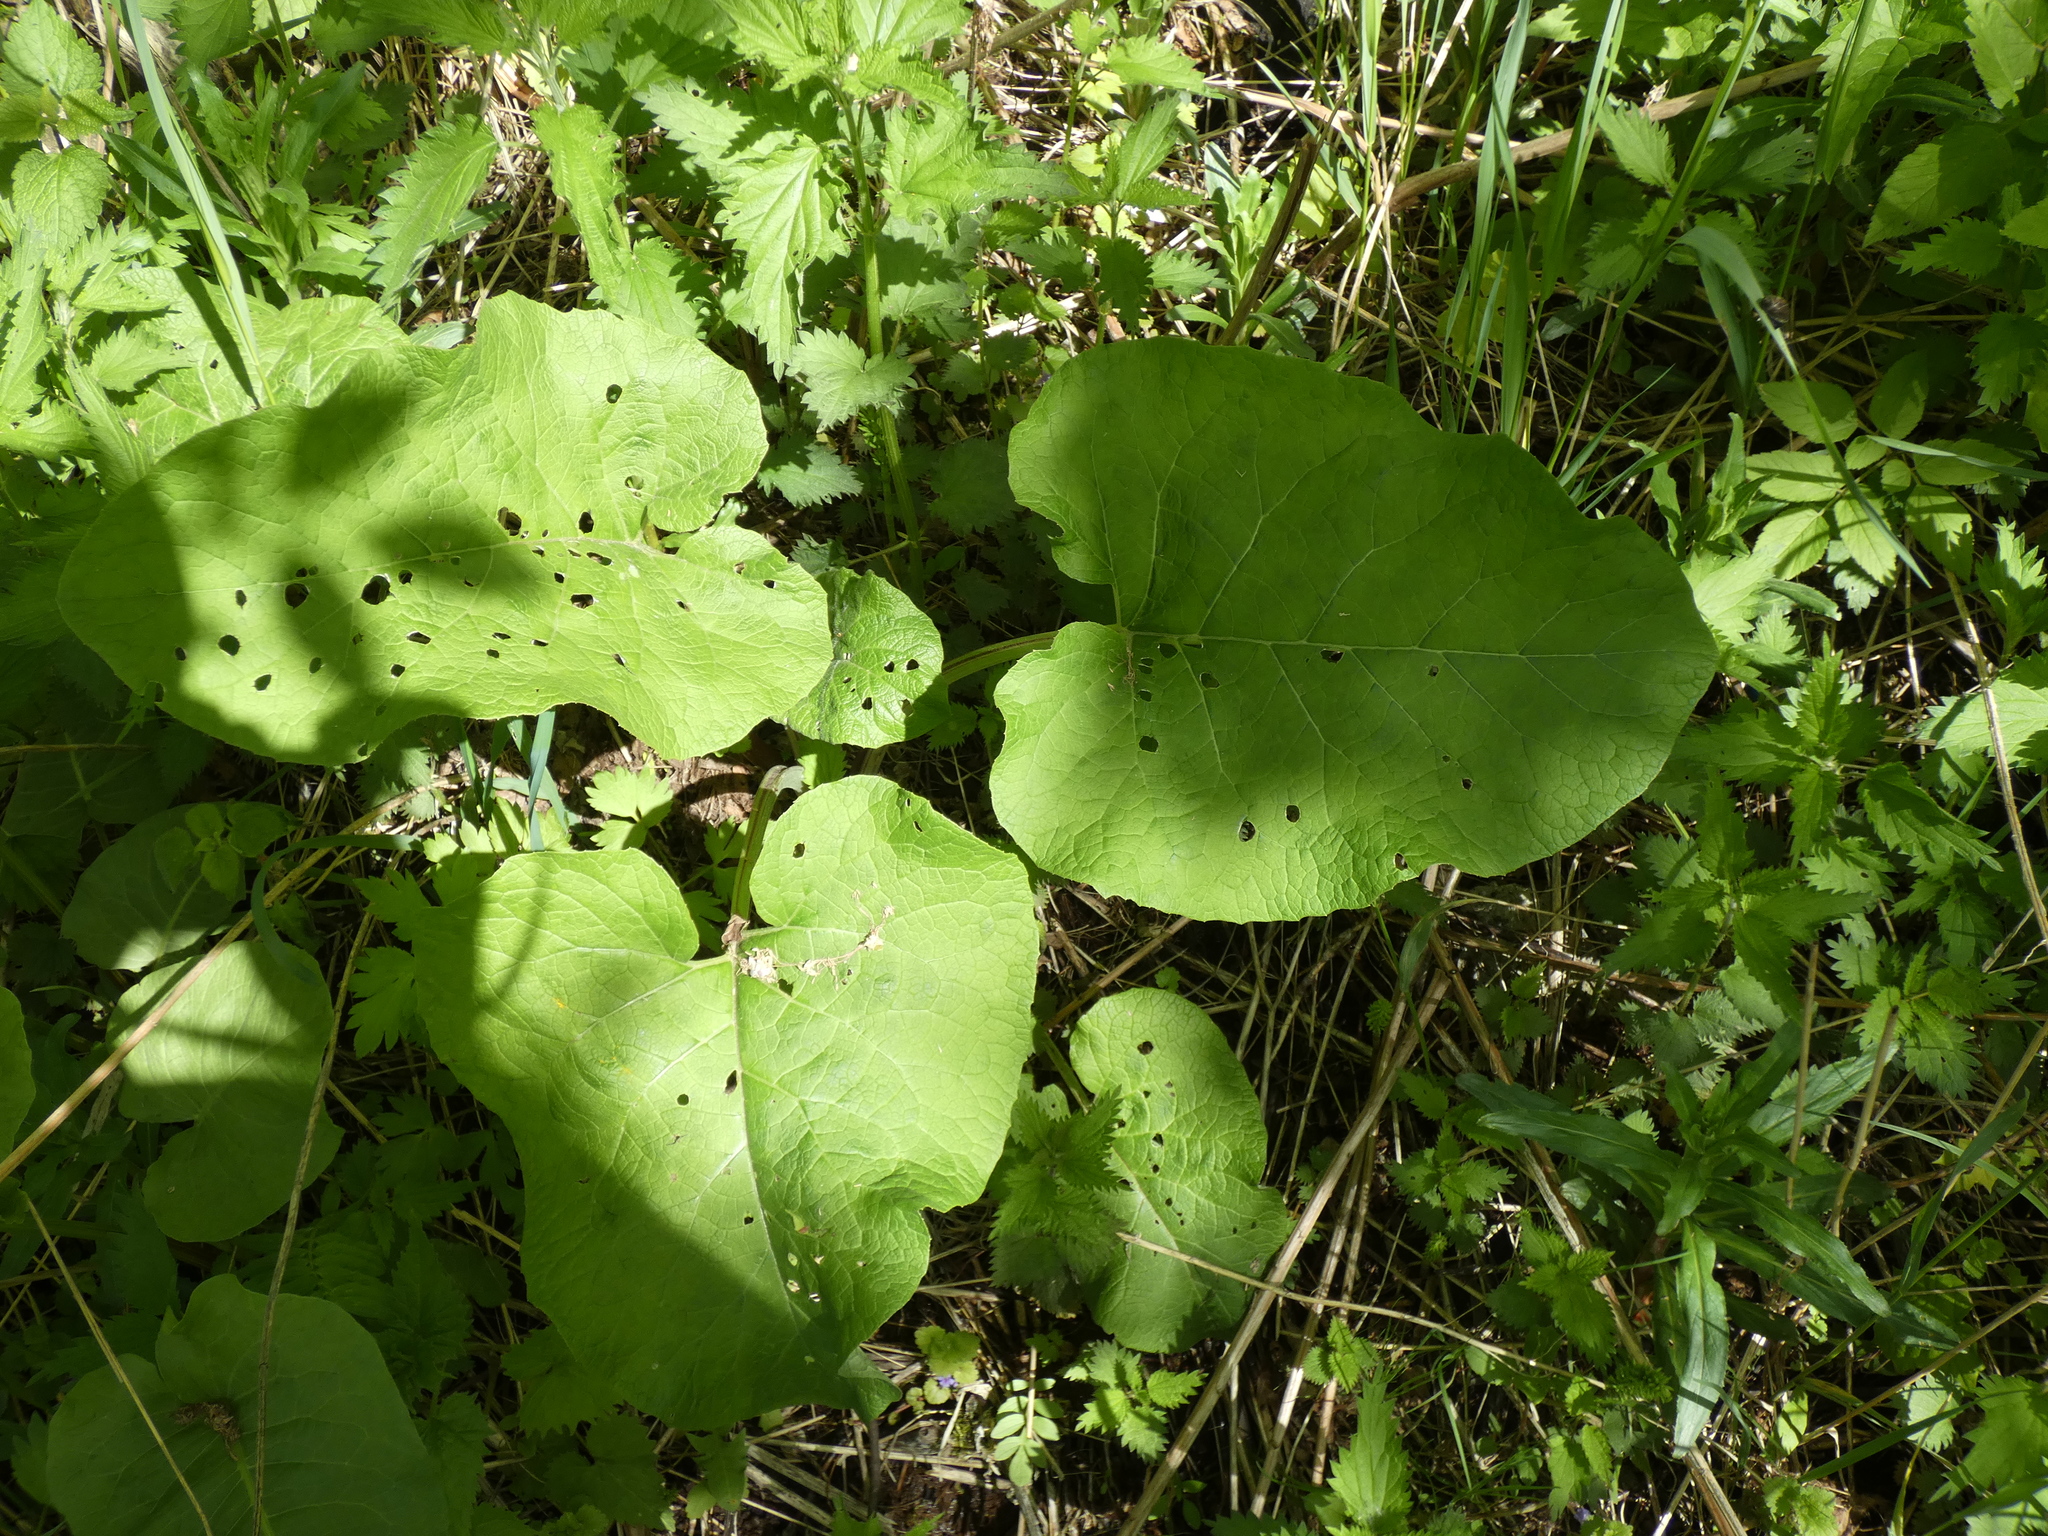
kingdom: Plantae
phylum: Tracheophyta
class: Magnoliopsida
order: Asterales
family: Asteraceae
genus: Arctium
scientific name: Arctium
